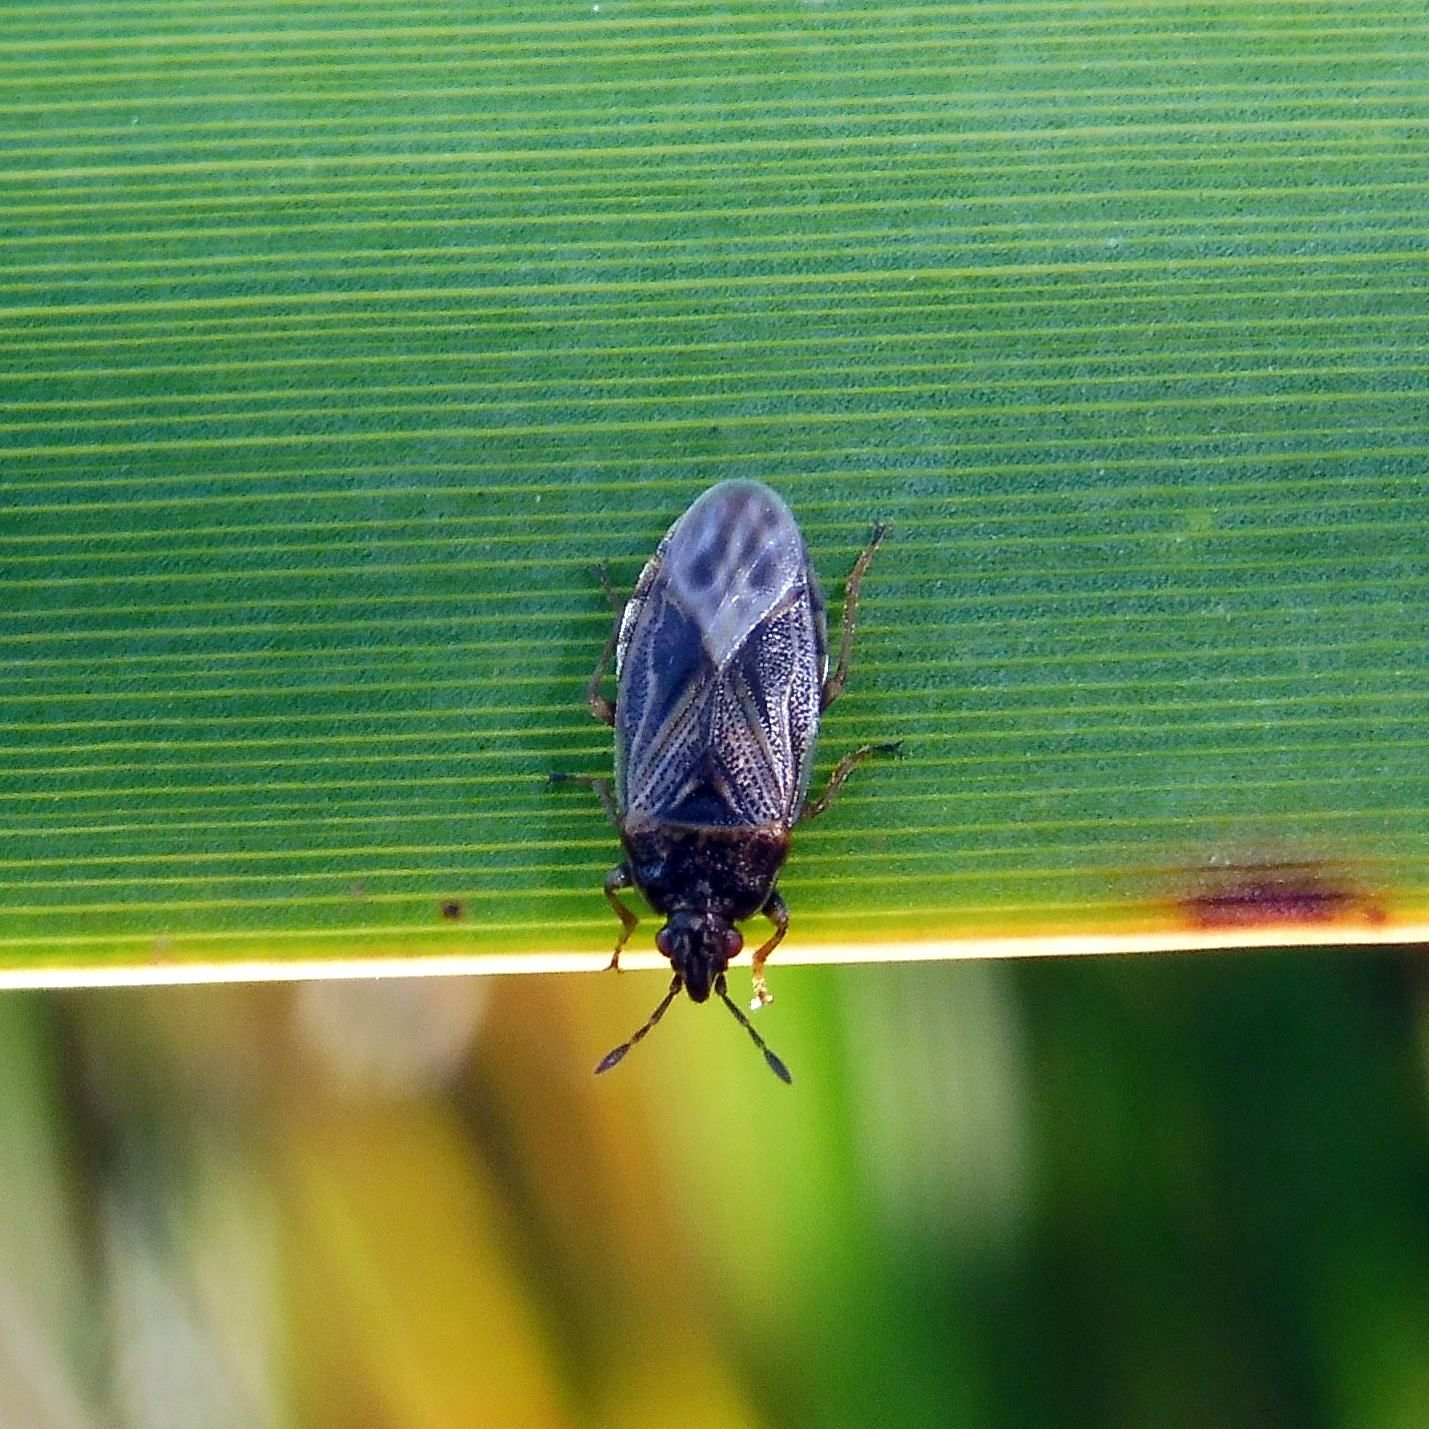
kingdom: Animalia
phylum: Arthropoda
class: Insecta
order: Hemiptera
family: Artheneidae
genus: Chilacis
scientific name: Chilacis typhae
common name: Cattail bug
